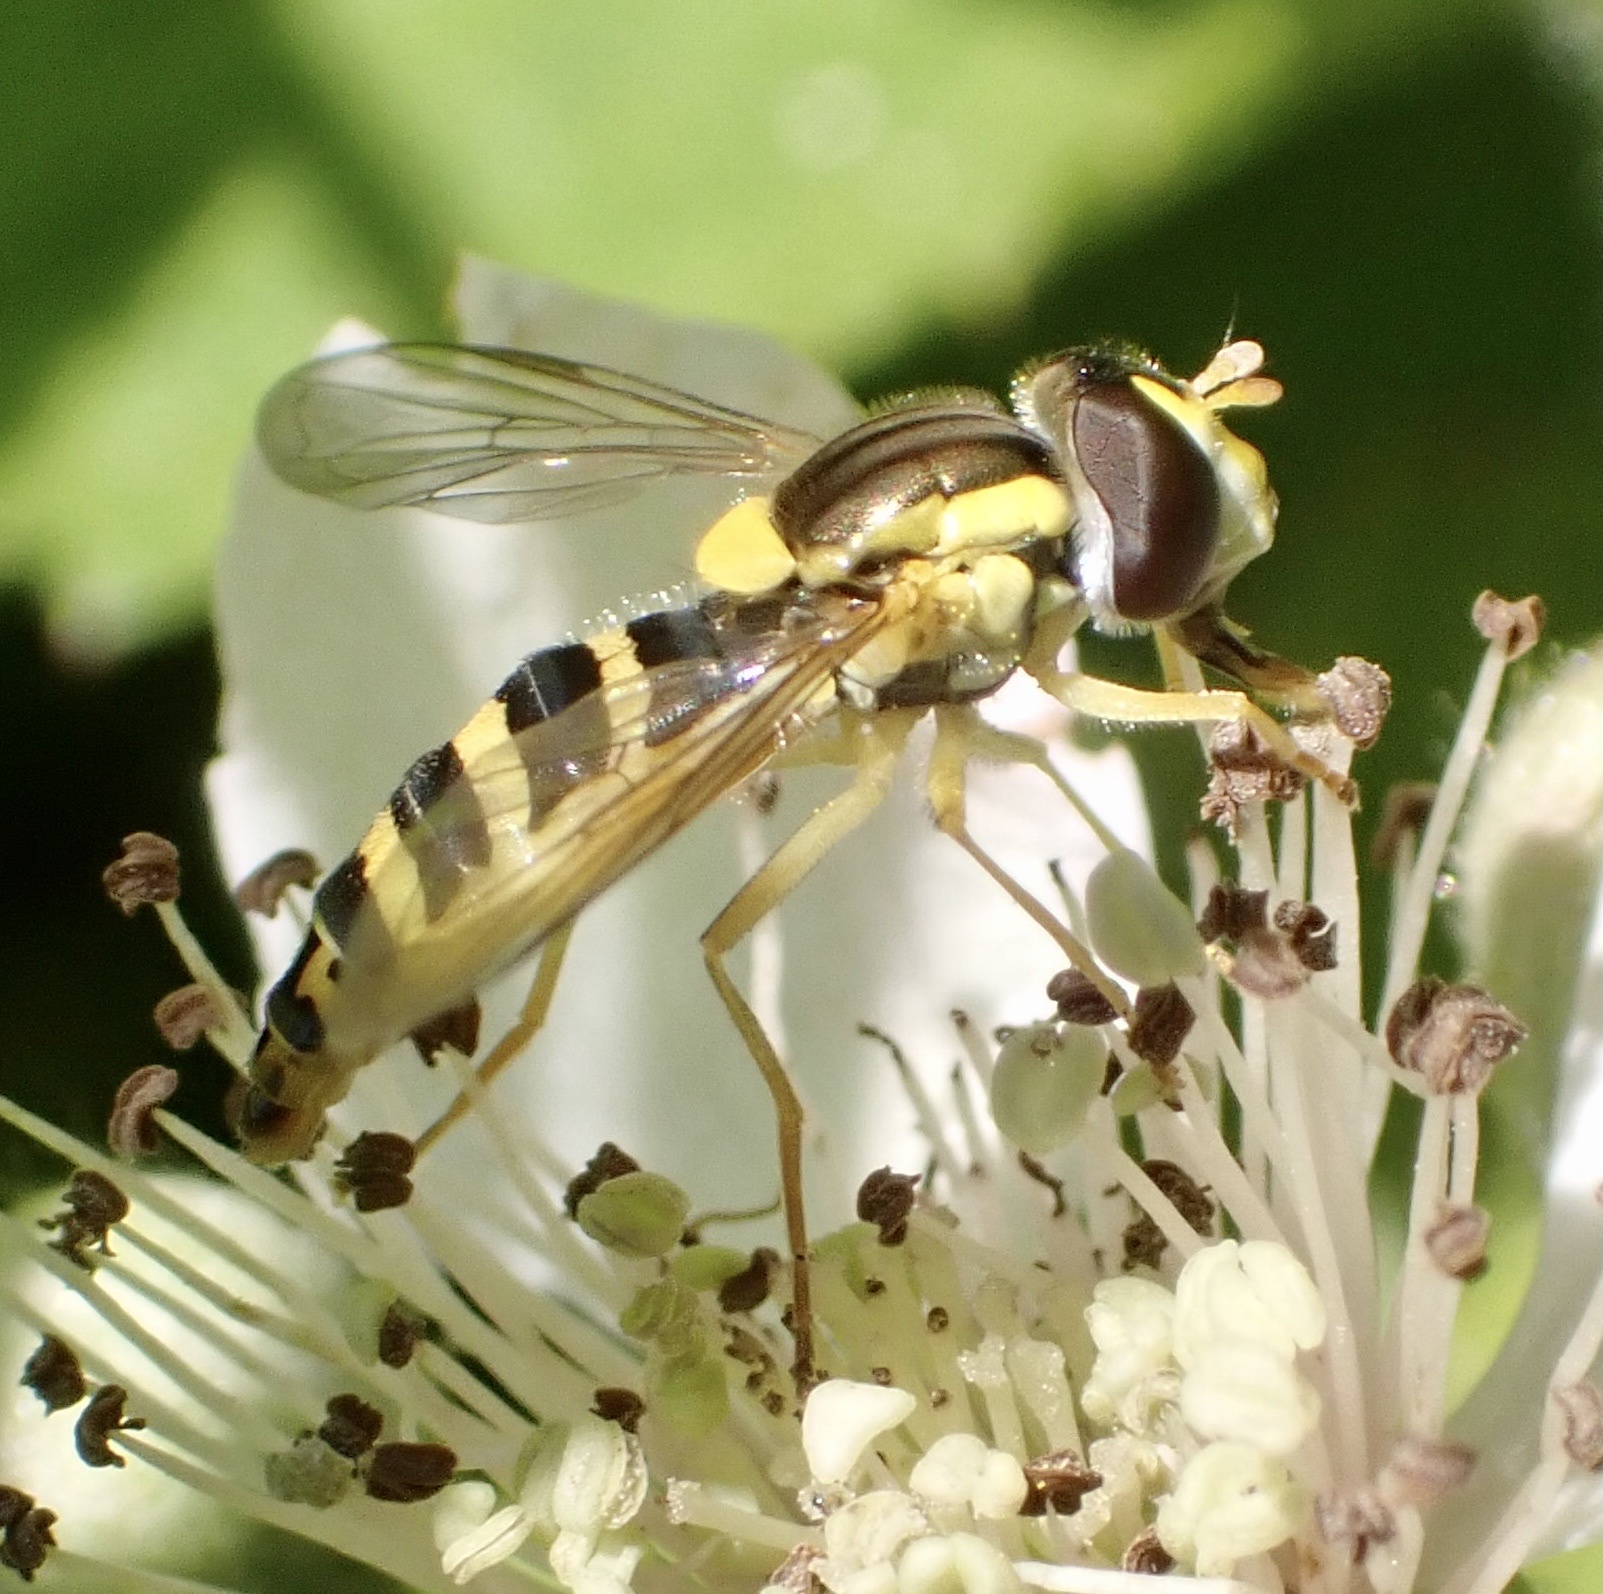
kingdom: Animalia
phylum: Arthropoda
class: Insecta
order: Diptera
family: Syrphidae
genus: Sphaerophoria
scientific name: Sphaerophoria
